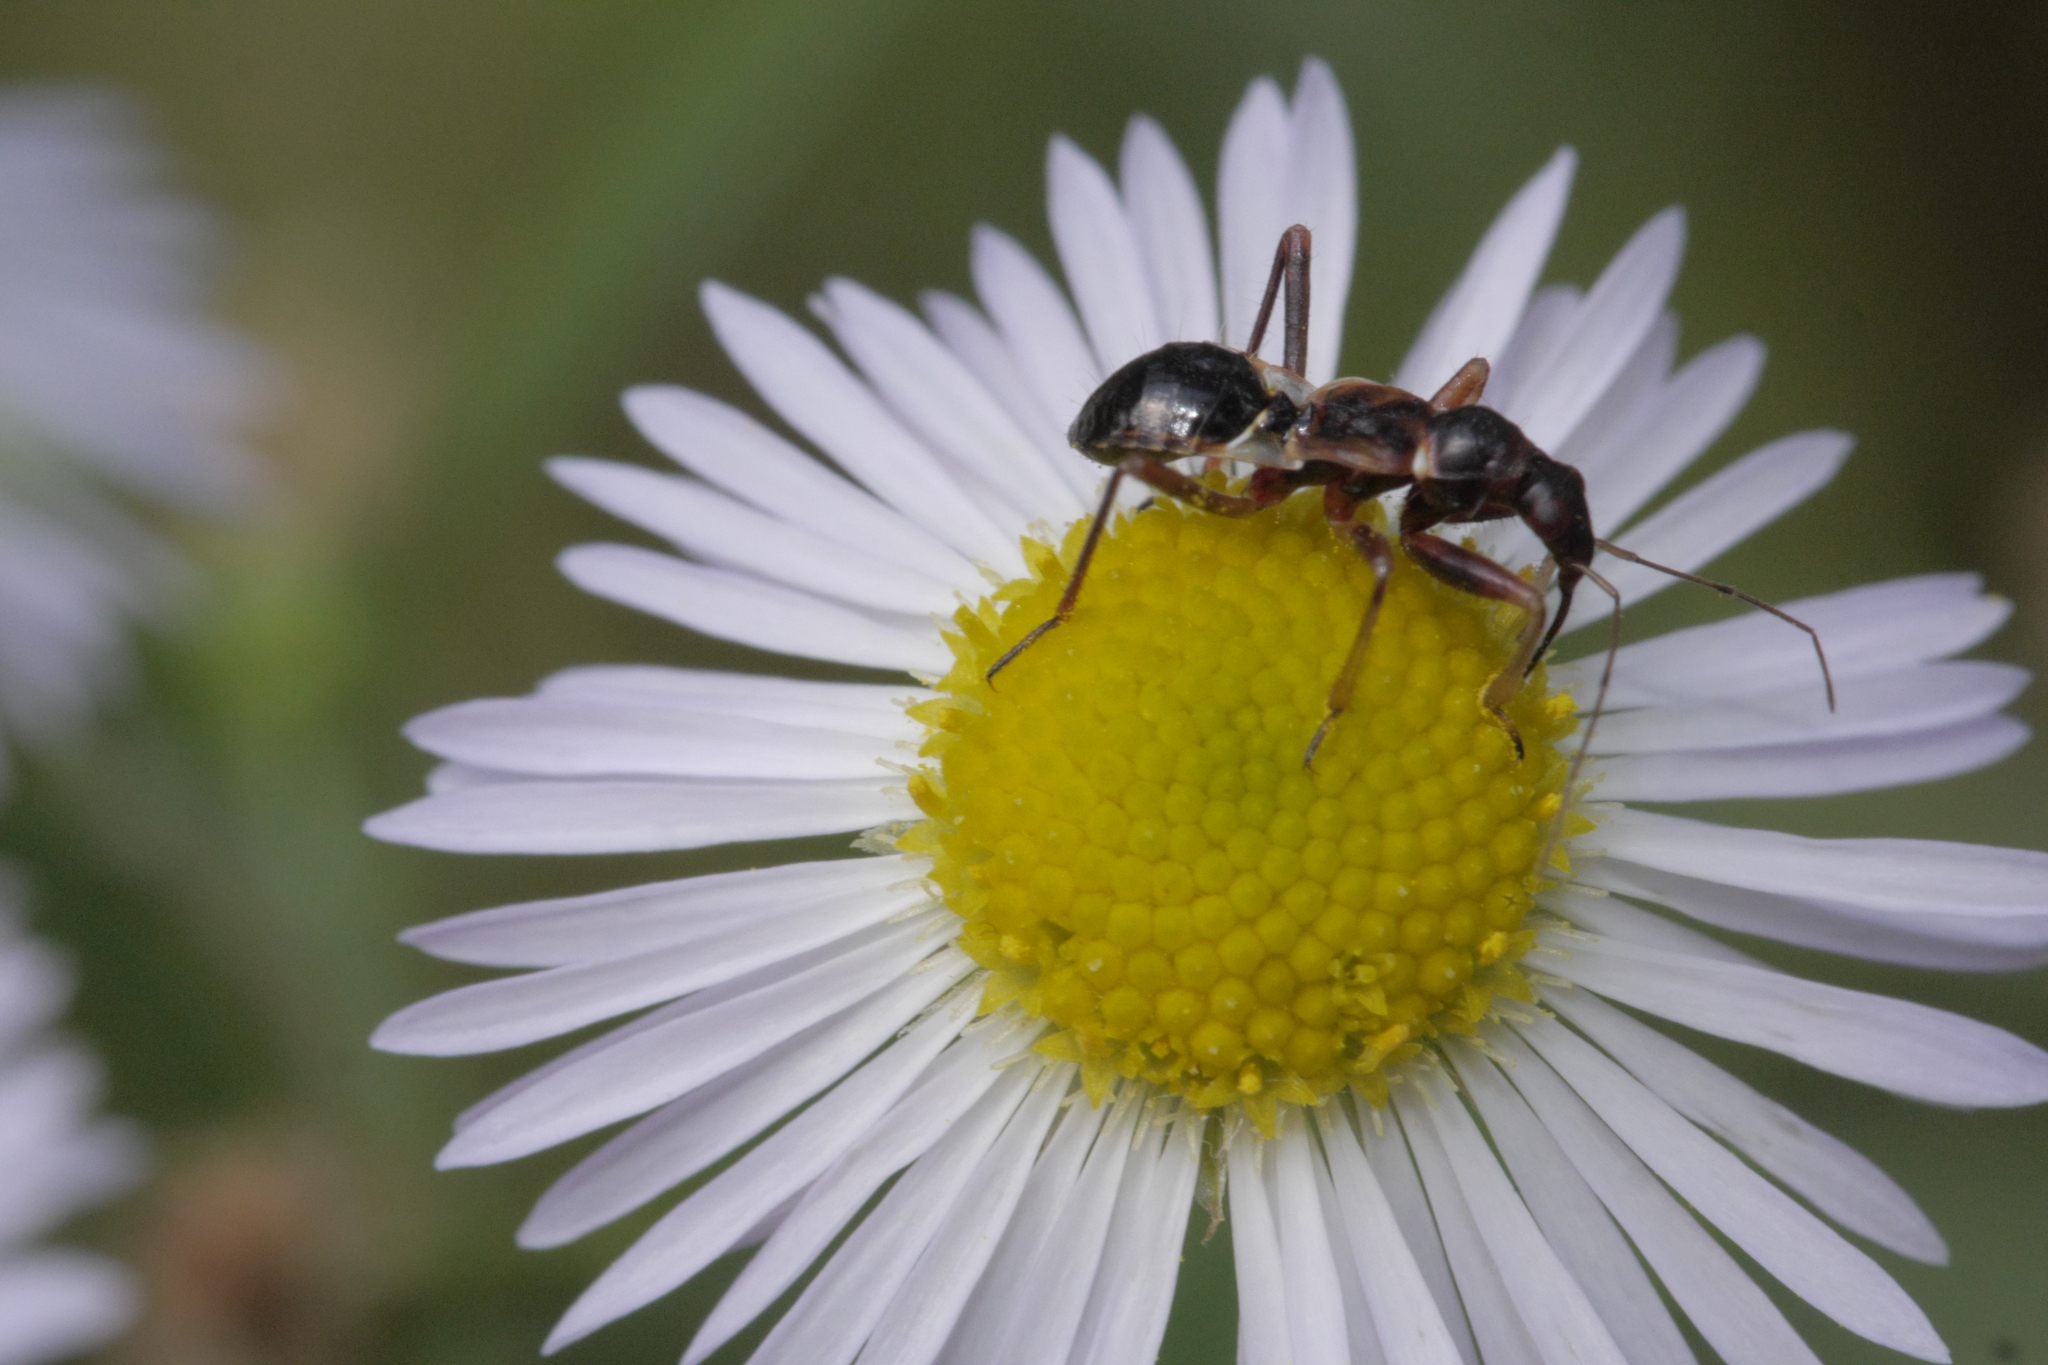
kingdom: Animalia
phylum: Arthropoda
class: Insecta
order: Hemiptera
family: Nabidae
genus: Himacerus
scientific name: Himacerus mirmicoides
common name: Ant damsel bug
